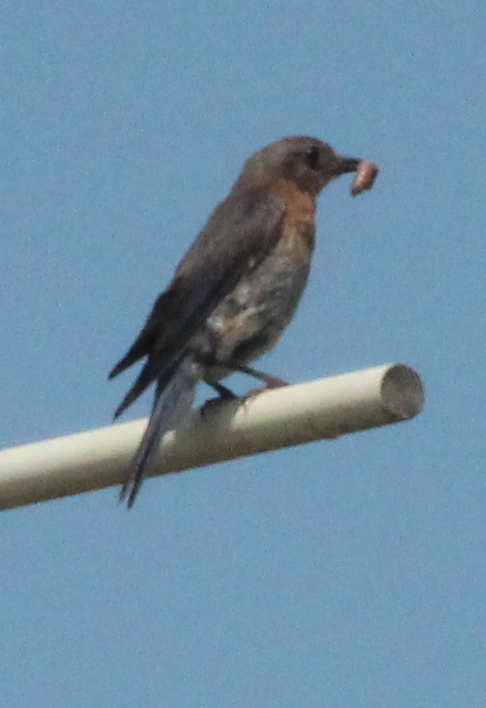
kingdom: Animalia
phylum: Chordata
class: Aves
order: Passeriformes
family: Turdidae
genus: Sialia
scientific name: Sialia sialis
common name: Eastern bluebird
